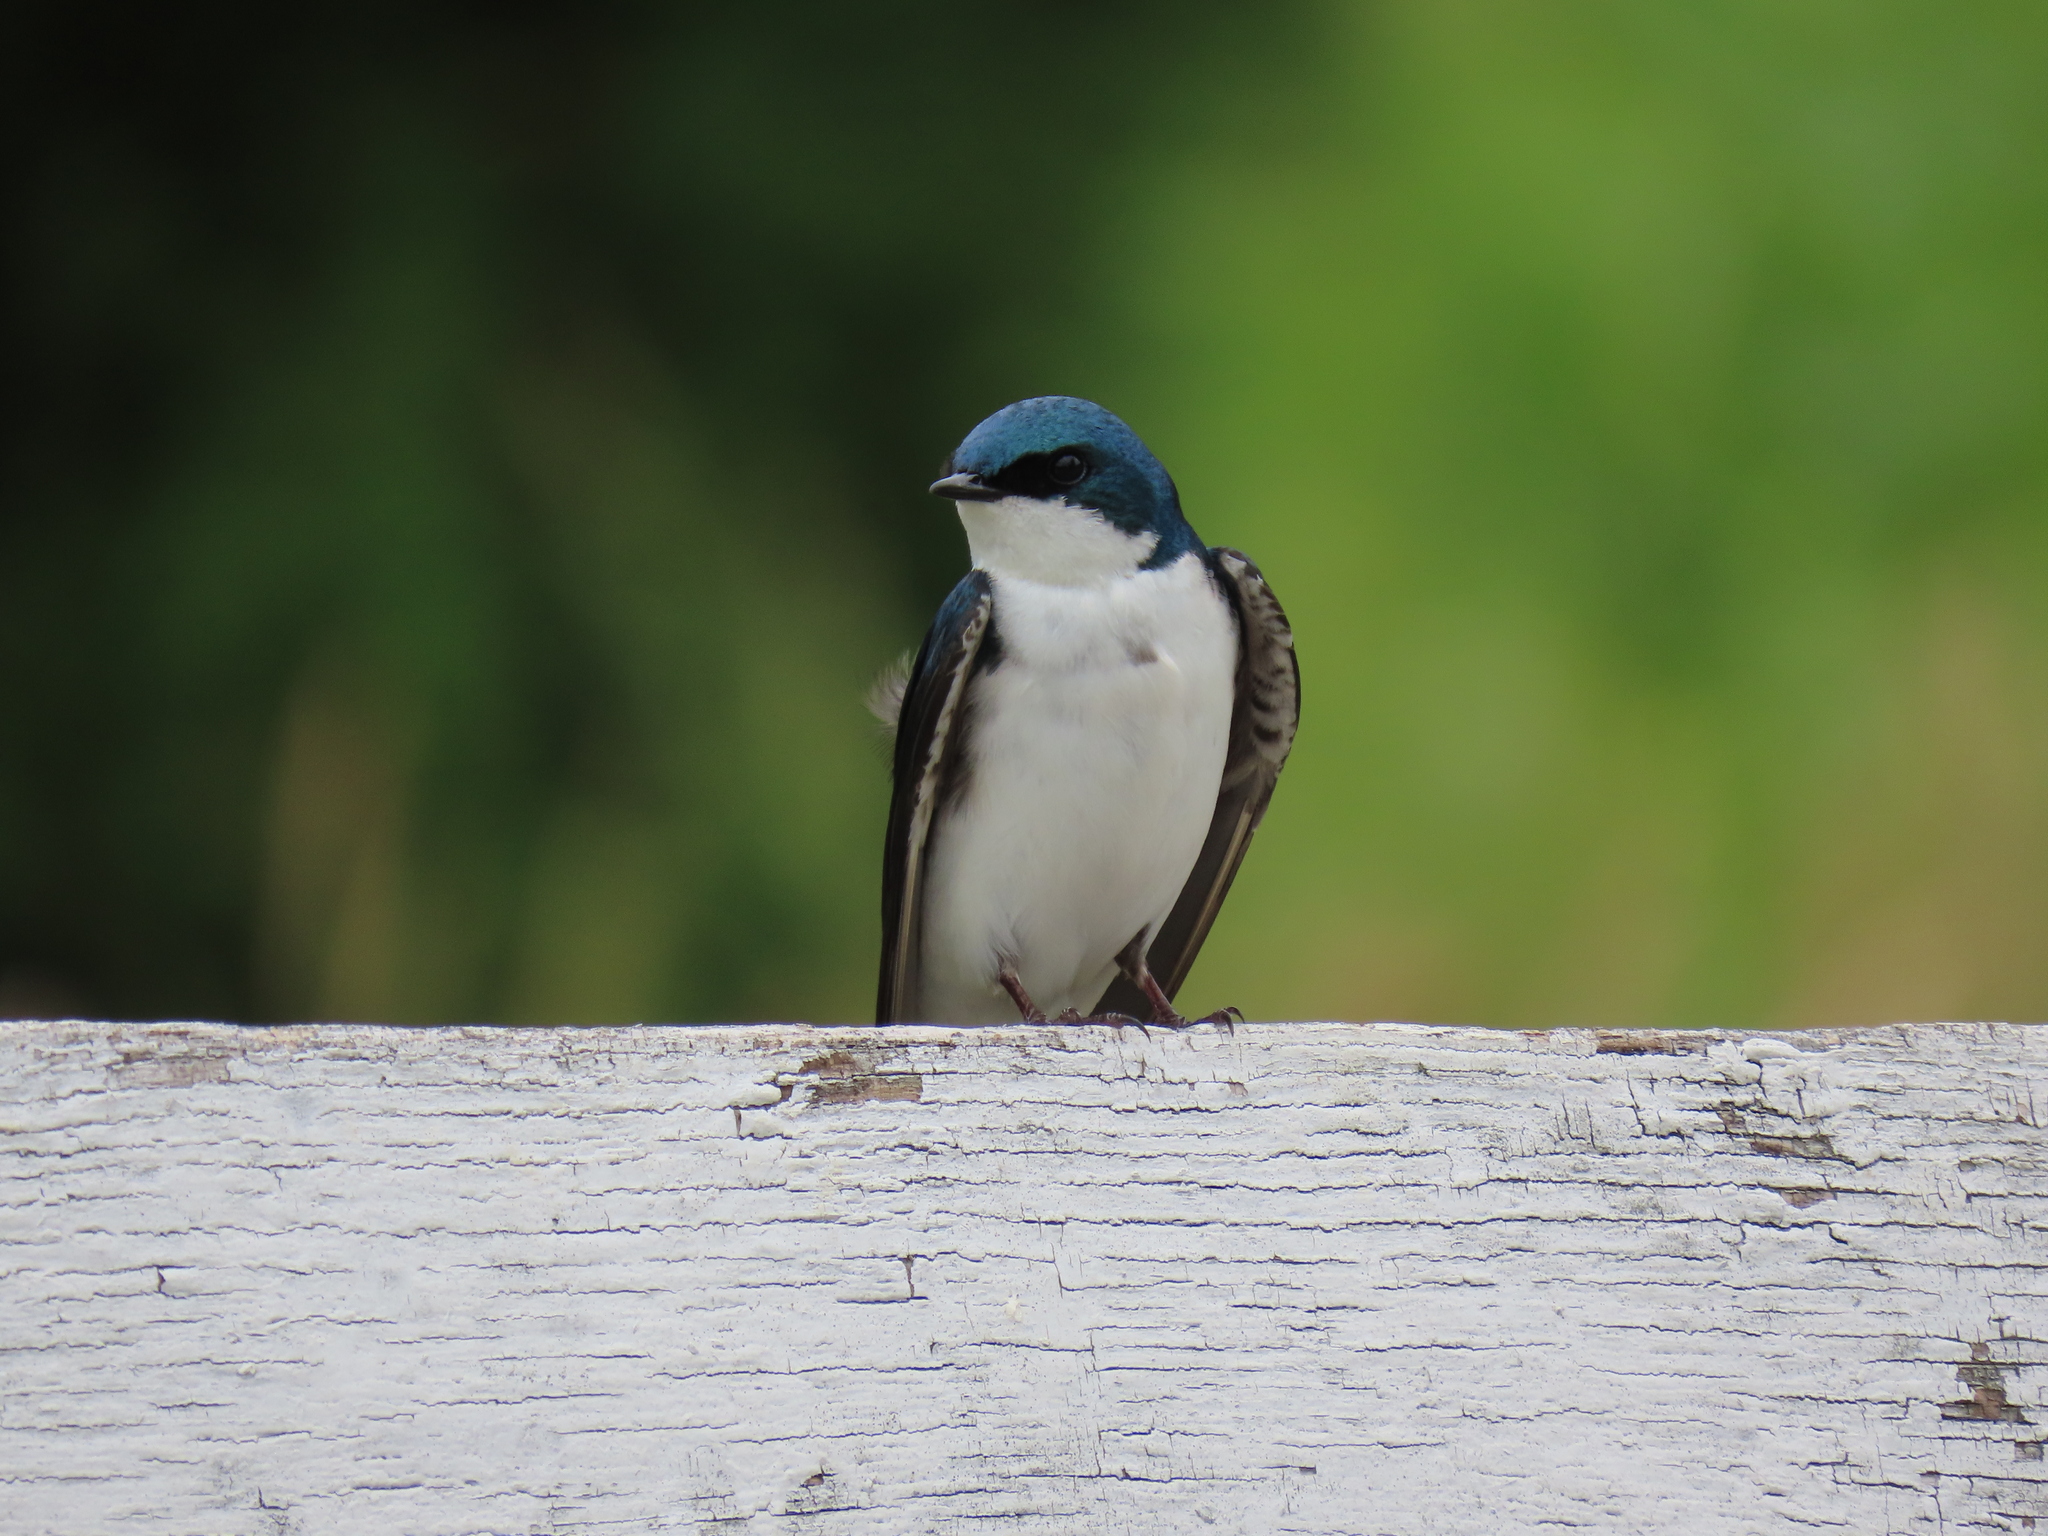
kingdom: Animalia
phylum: Chordata
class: Aves
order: Passeriformes
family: Hirundinidae
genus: Tachycineta
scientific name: Tachycineta bicolor
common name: Tree swallow
